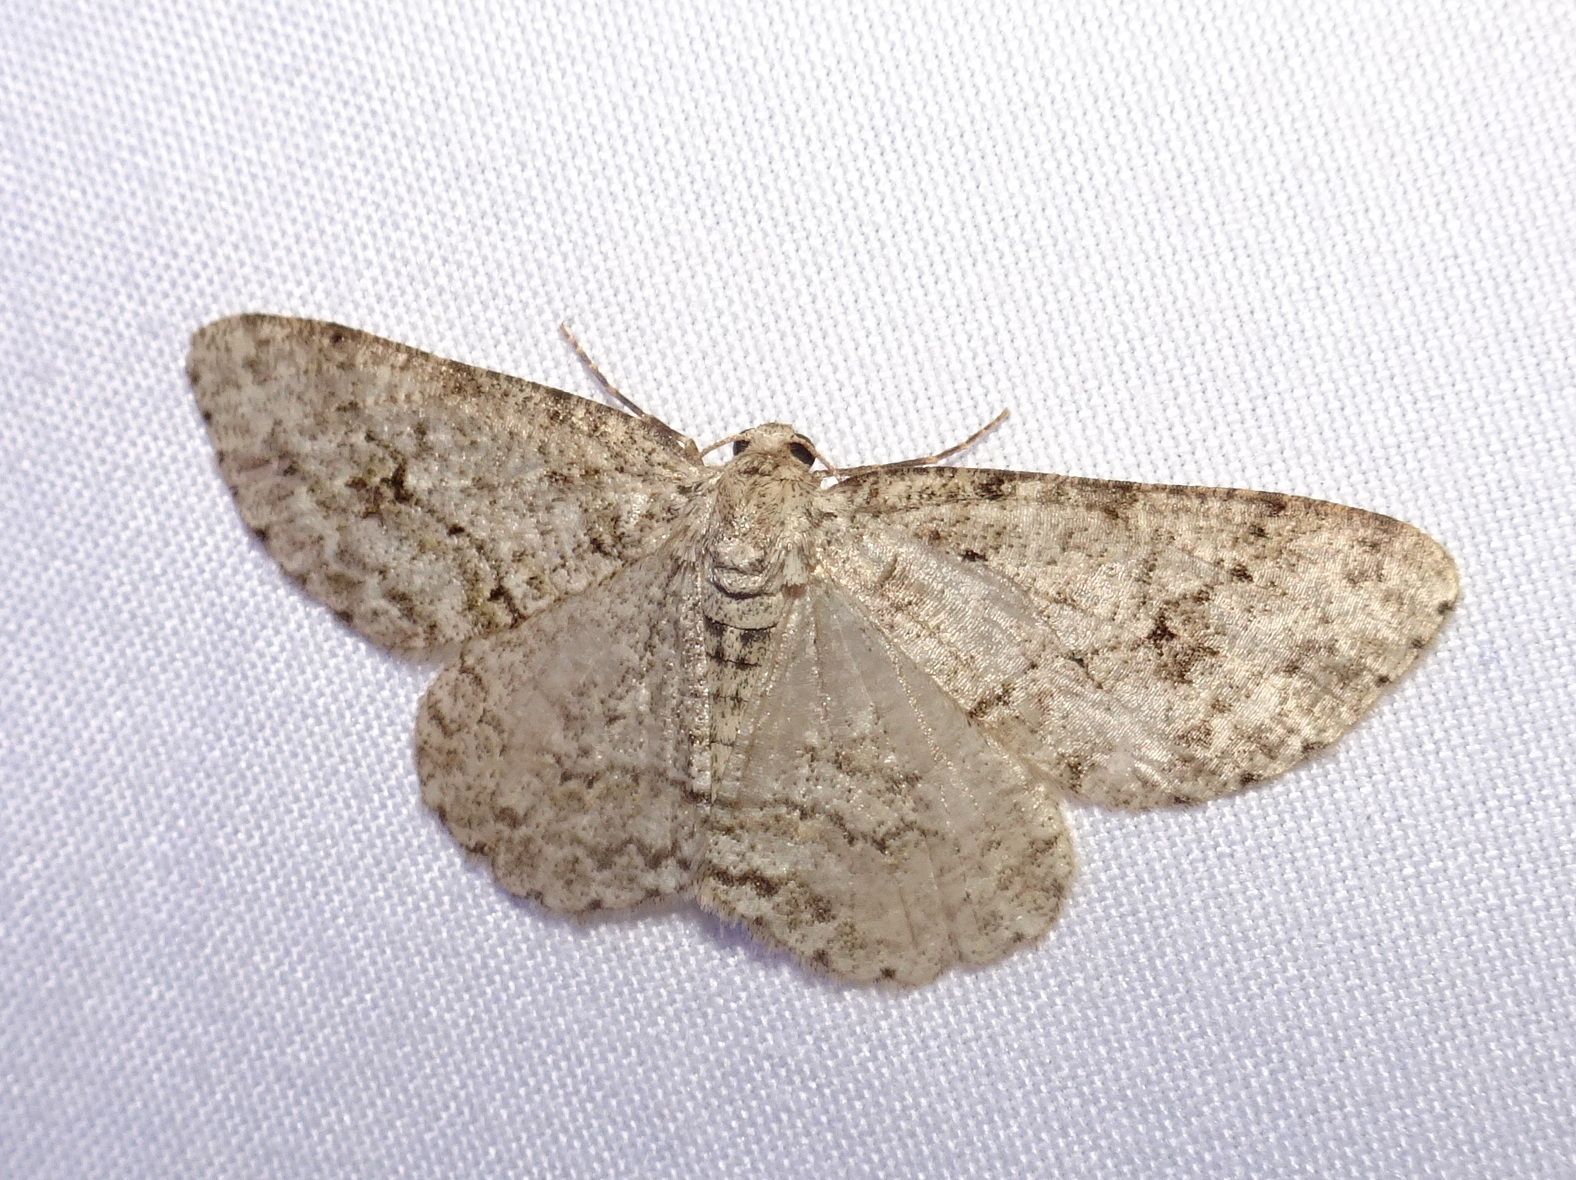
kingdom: Animalia
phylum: Arthropoda
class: Insecta
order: Lepidoptera
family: Geometridae
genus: Ectropis
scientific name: Ectropis crepuscularia
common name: Engrailed
